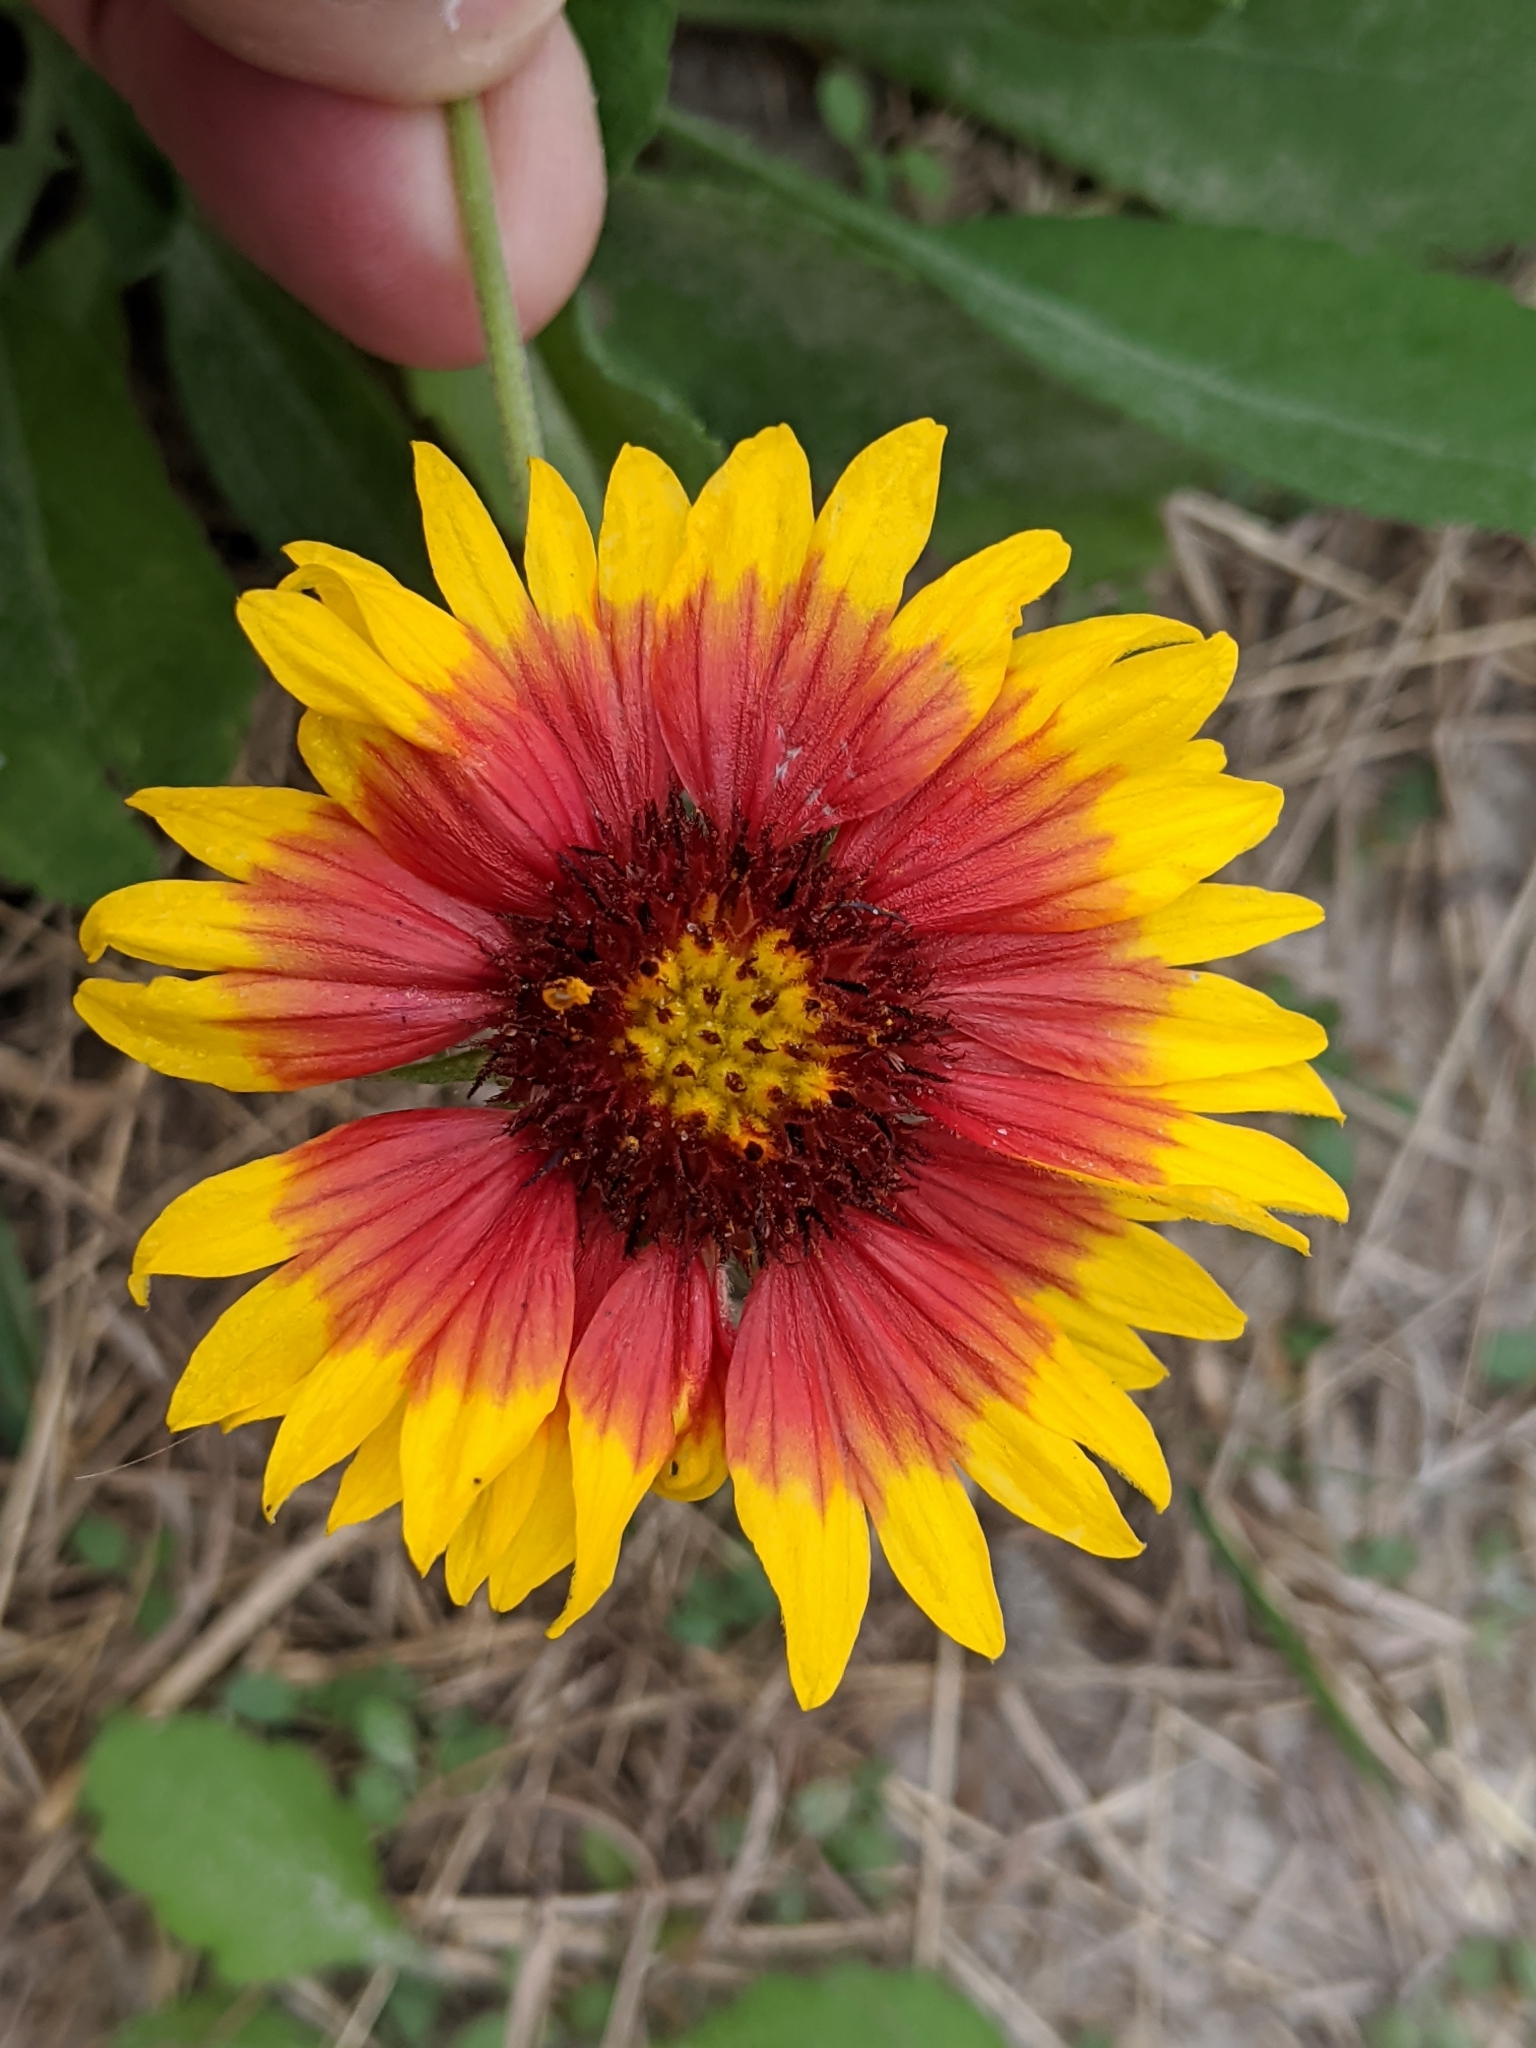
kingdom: Plantae
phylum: Tracheophyta
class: Magnoliopsida
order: Asterales
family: Asteraceae
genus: Gaillardia
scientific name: Gaillardia pulchella
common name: Firewheel
